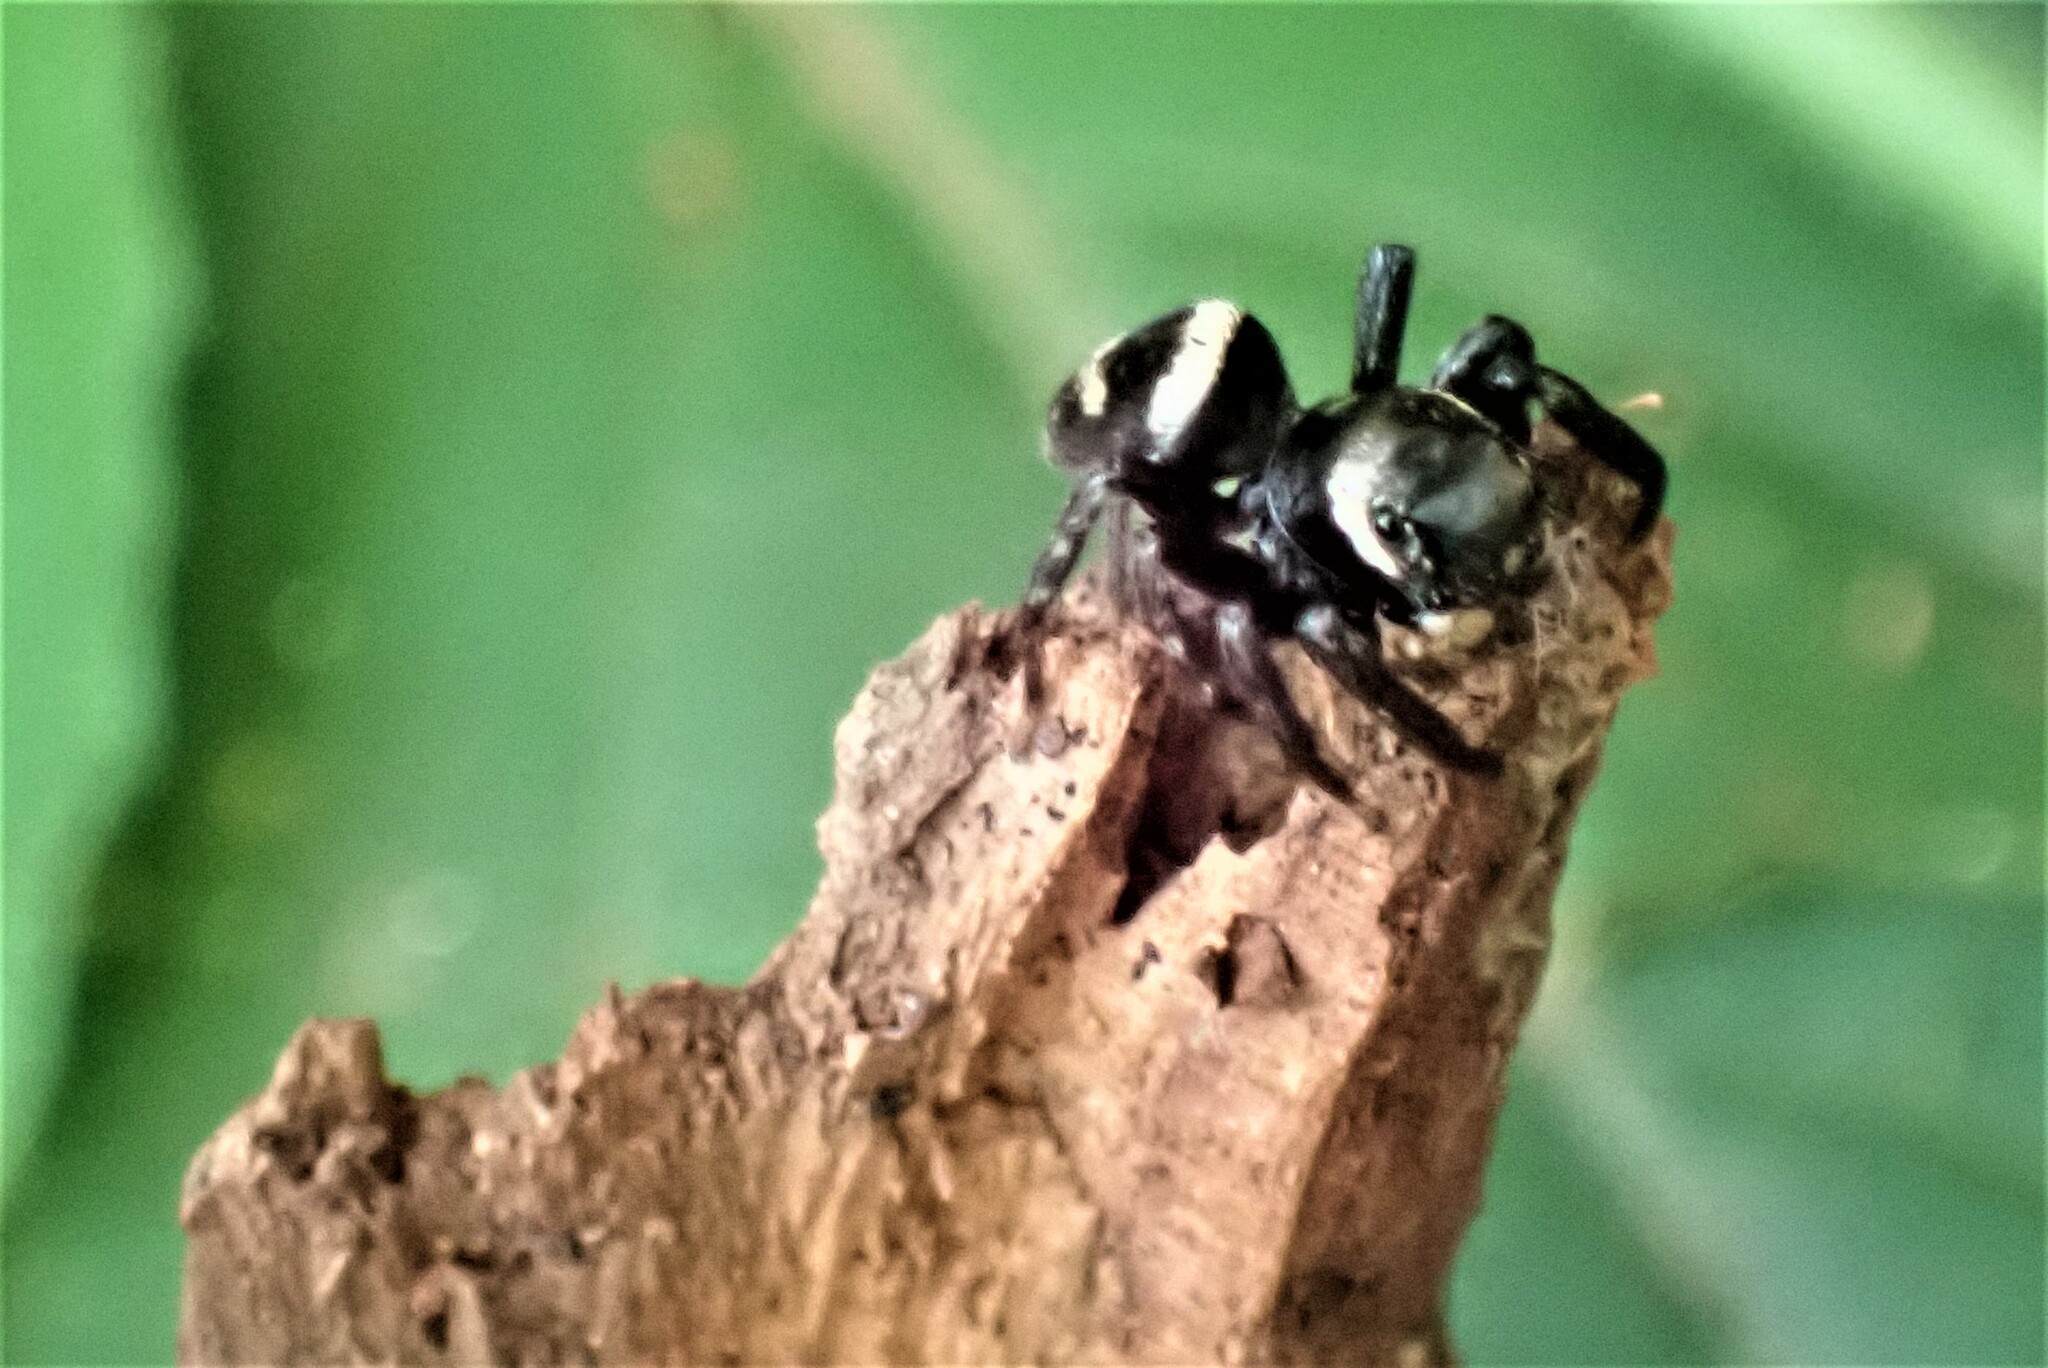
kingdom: Animalia
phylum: Arthropoda
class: Arachnida
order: Araneae
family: Salticidae
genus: Rumburak
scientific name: Rumburak laxus
